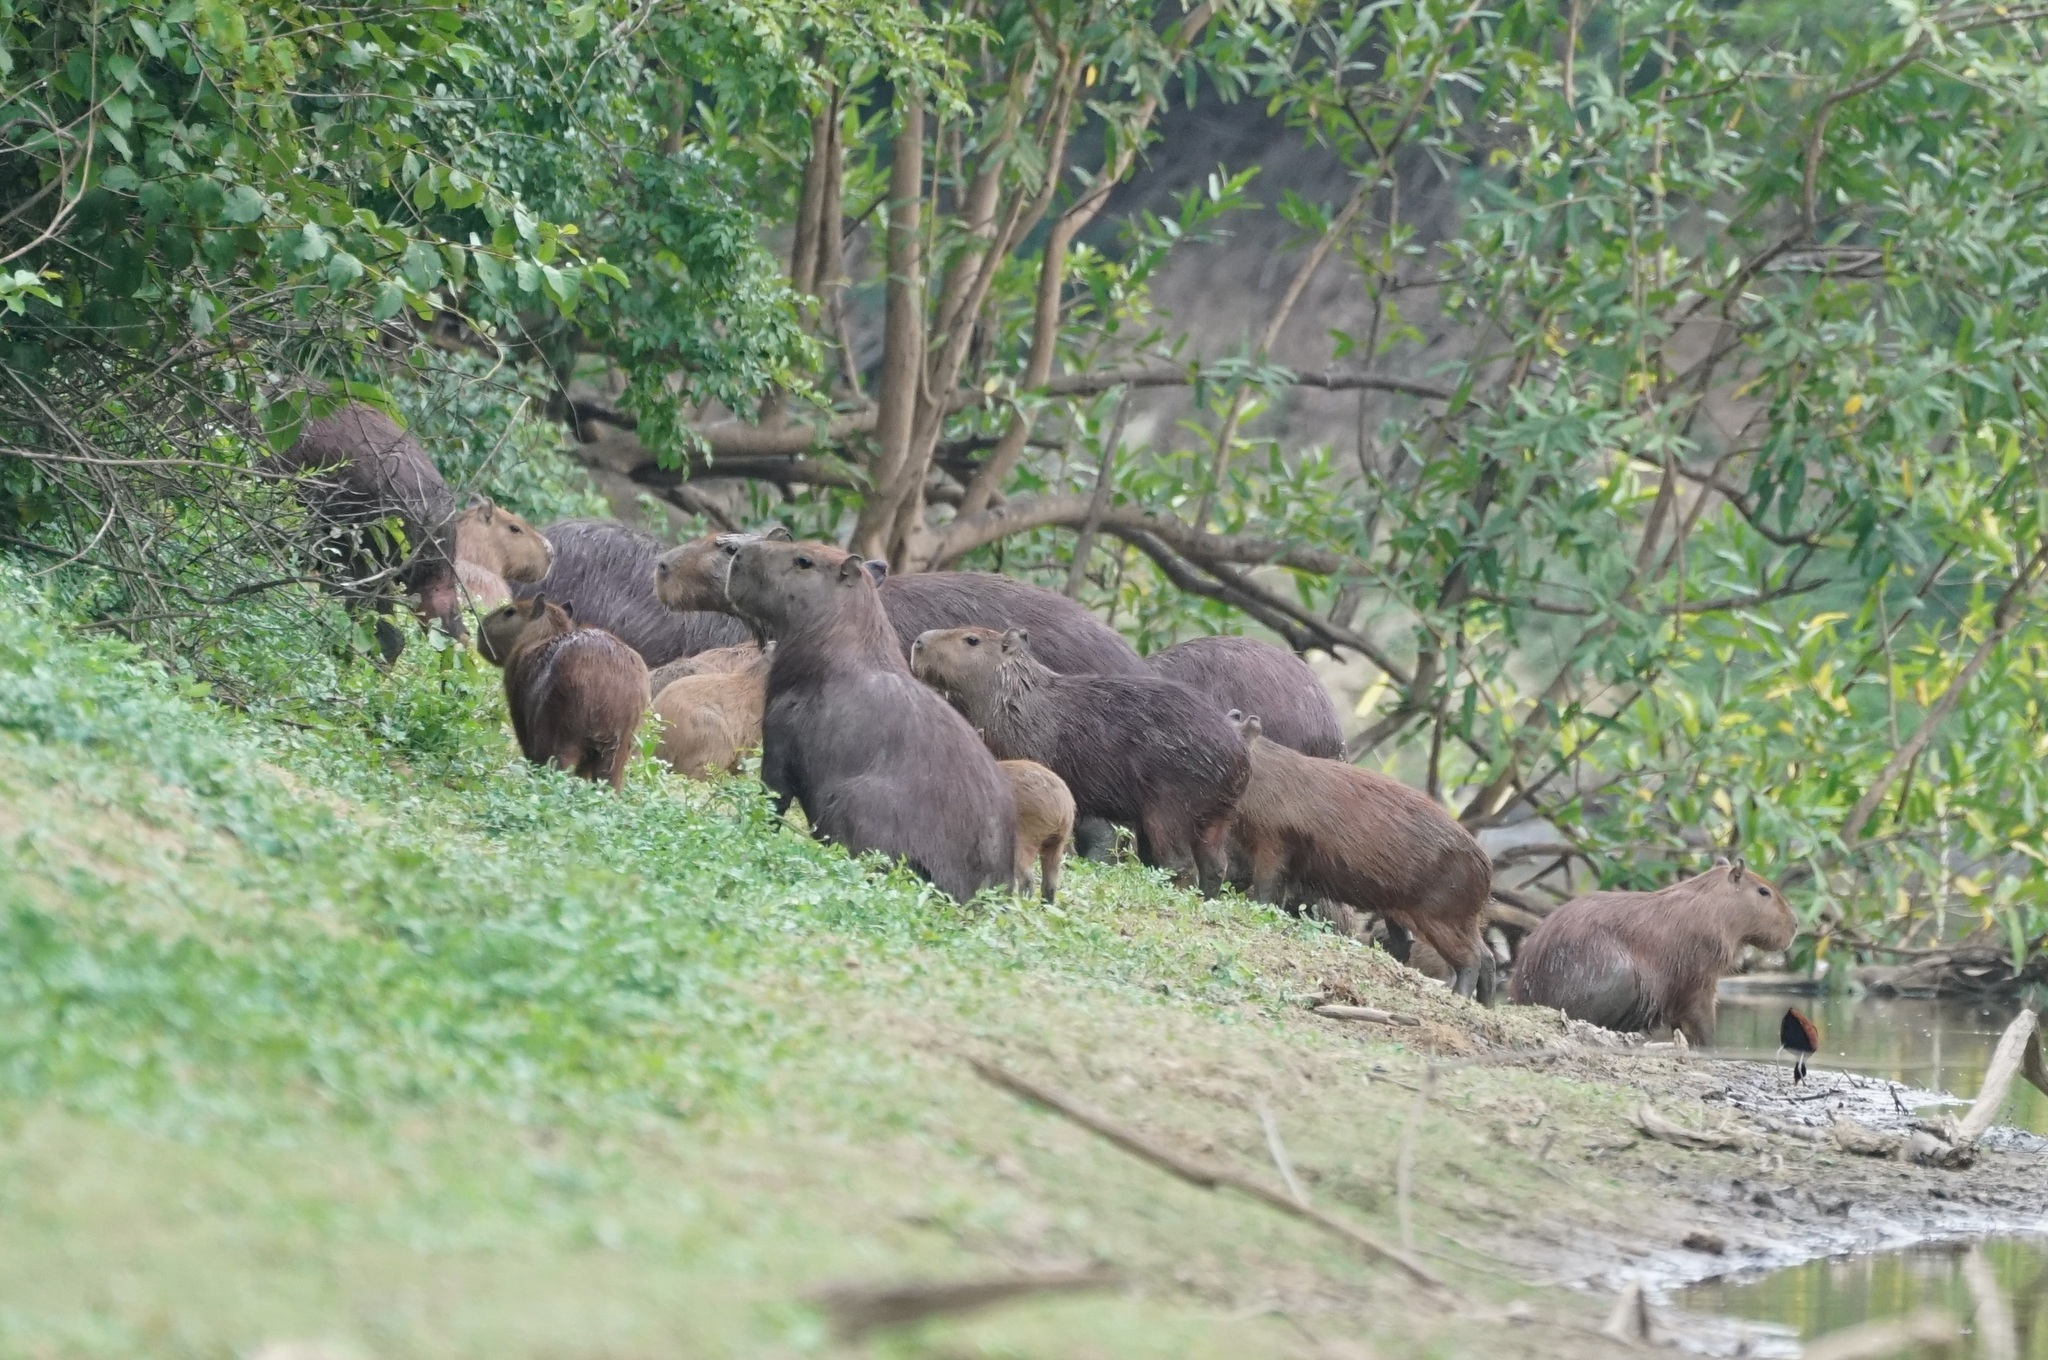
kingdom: Animalia
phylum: Chordata
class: Mammalia
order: Rodentia
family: Caviidae
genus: Hydrochoerus
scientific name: Hydrochoerus hydrochaeris
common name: Capybara
